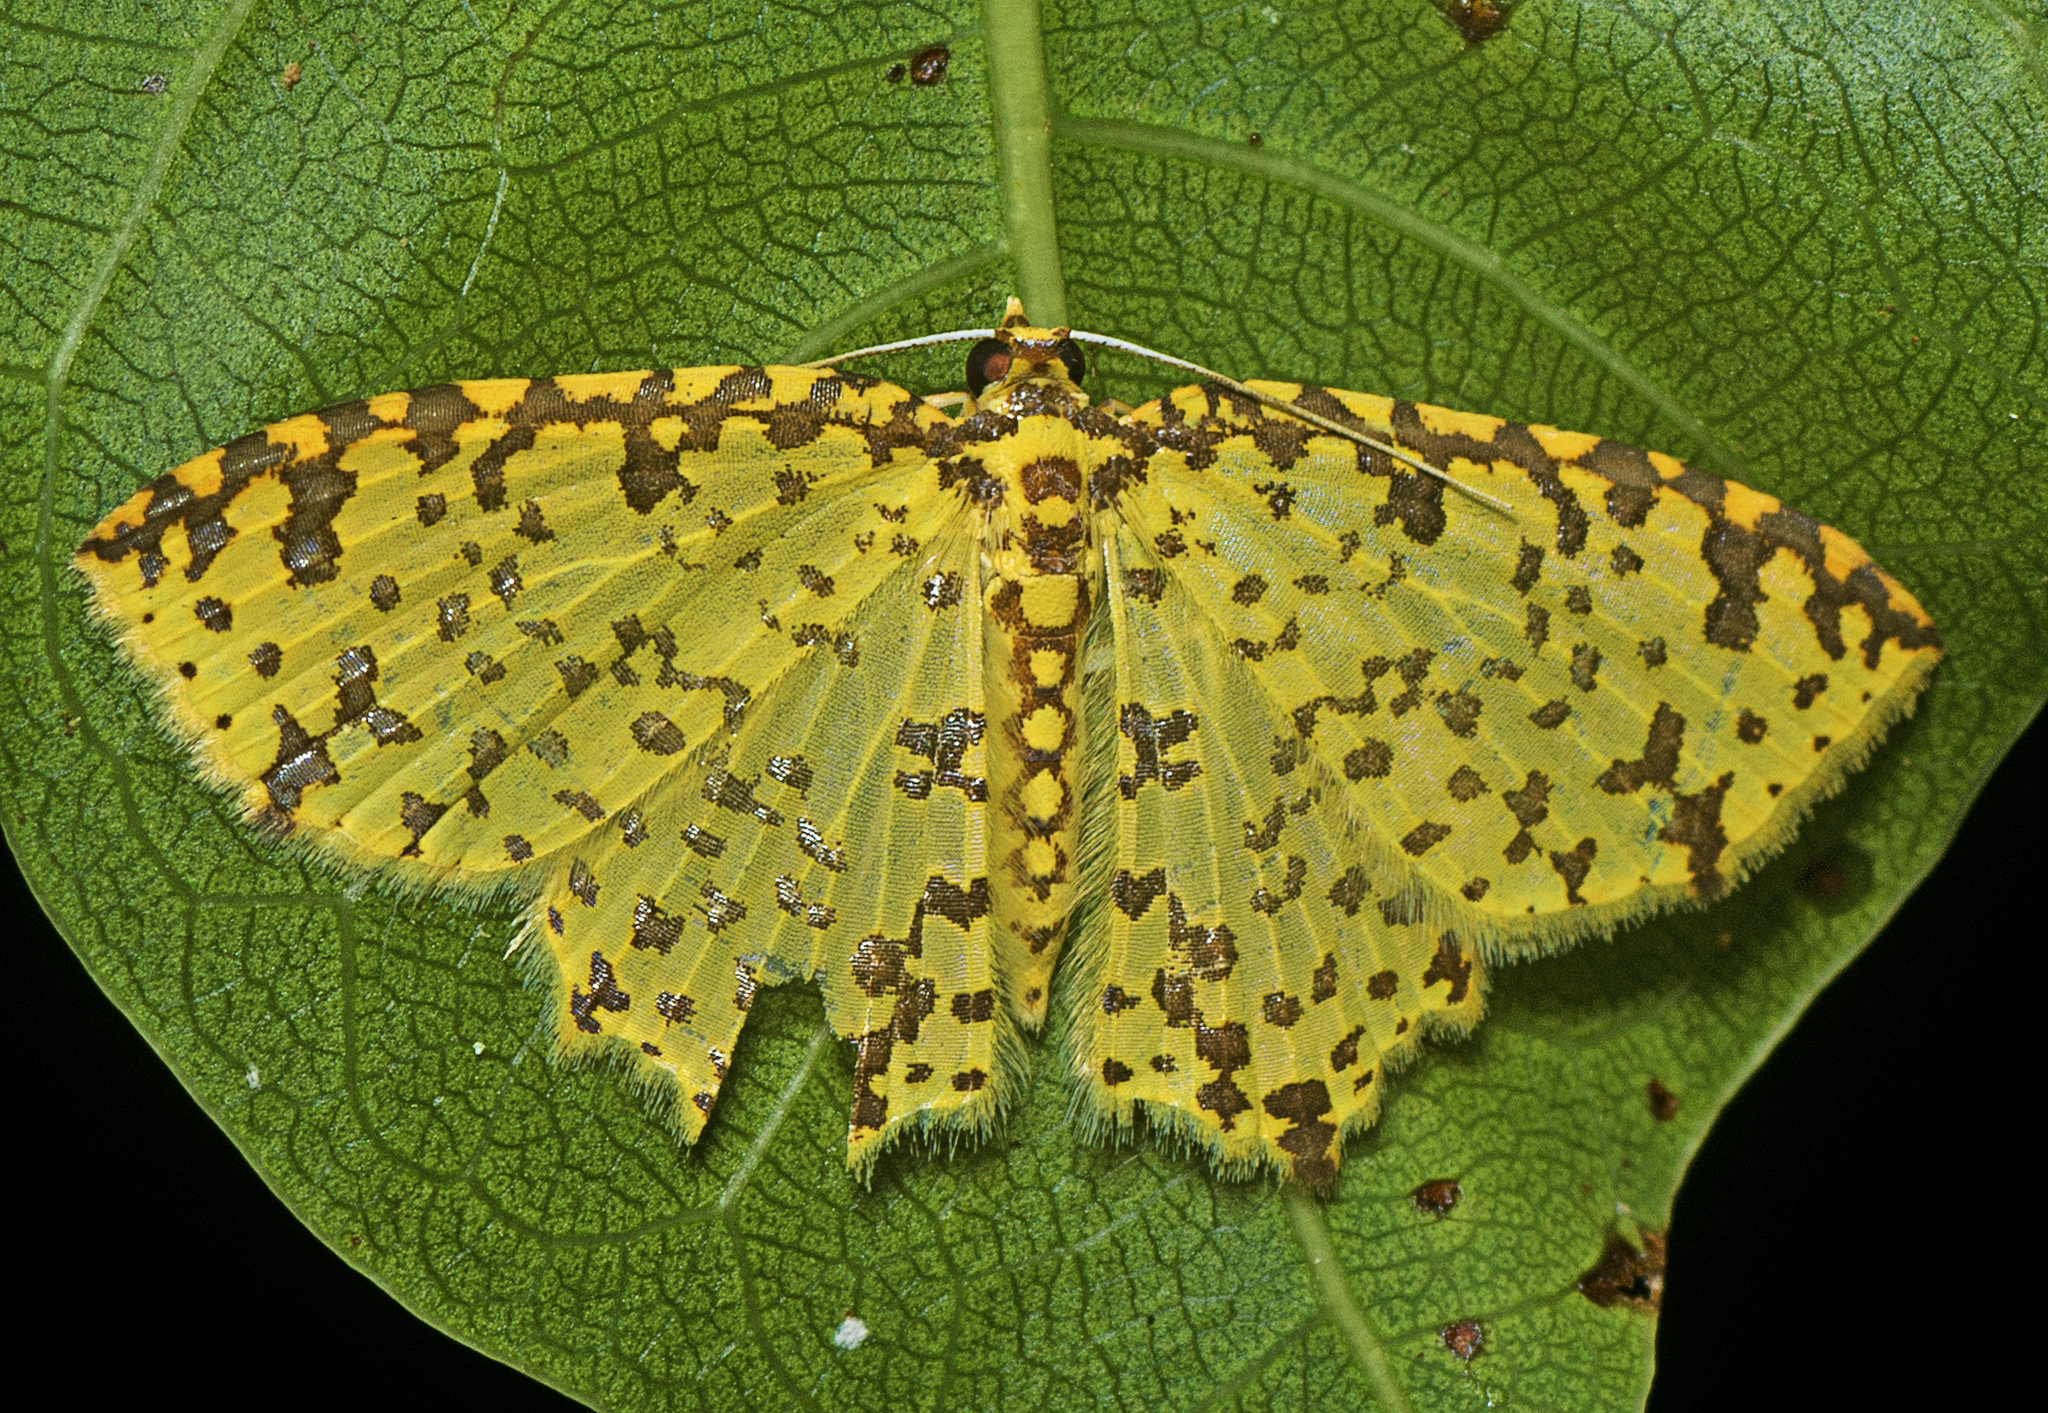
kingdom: Animalia
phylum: Arthropoda
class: Insecta
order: Lepidoptera
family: Geometridae
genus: Ecnomophlebia
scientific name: Ecnomophlebia argyrospila
